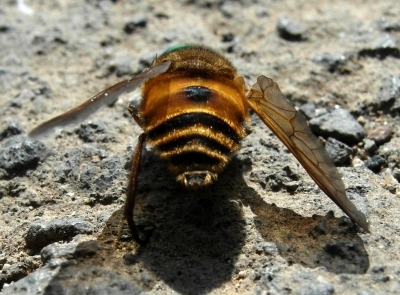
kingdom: Animalia
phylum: Arthropoda
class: Insecta
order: Diptera
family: Tabanidae
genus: Philipomyia
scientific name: Philipomyia graeca
